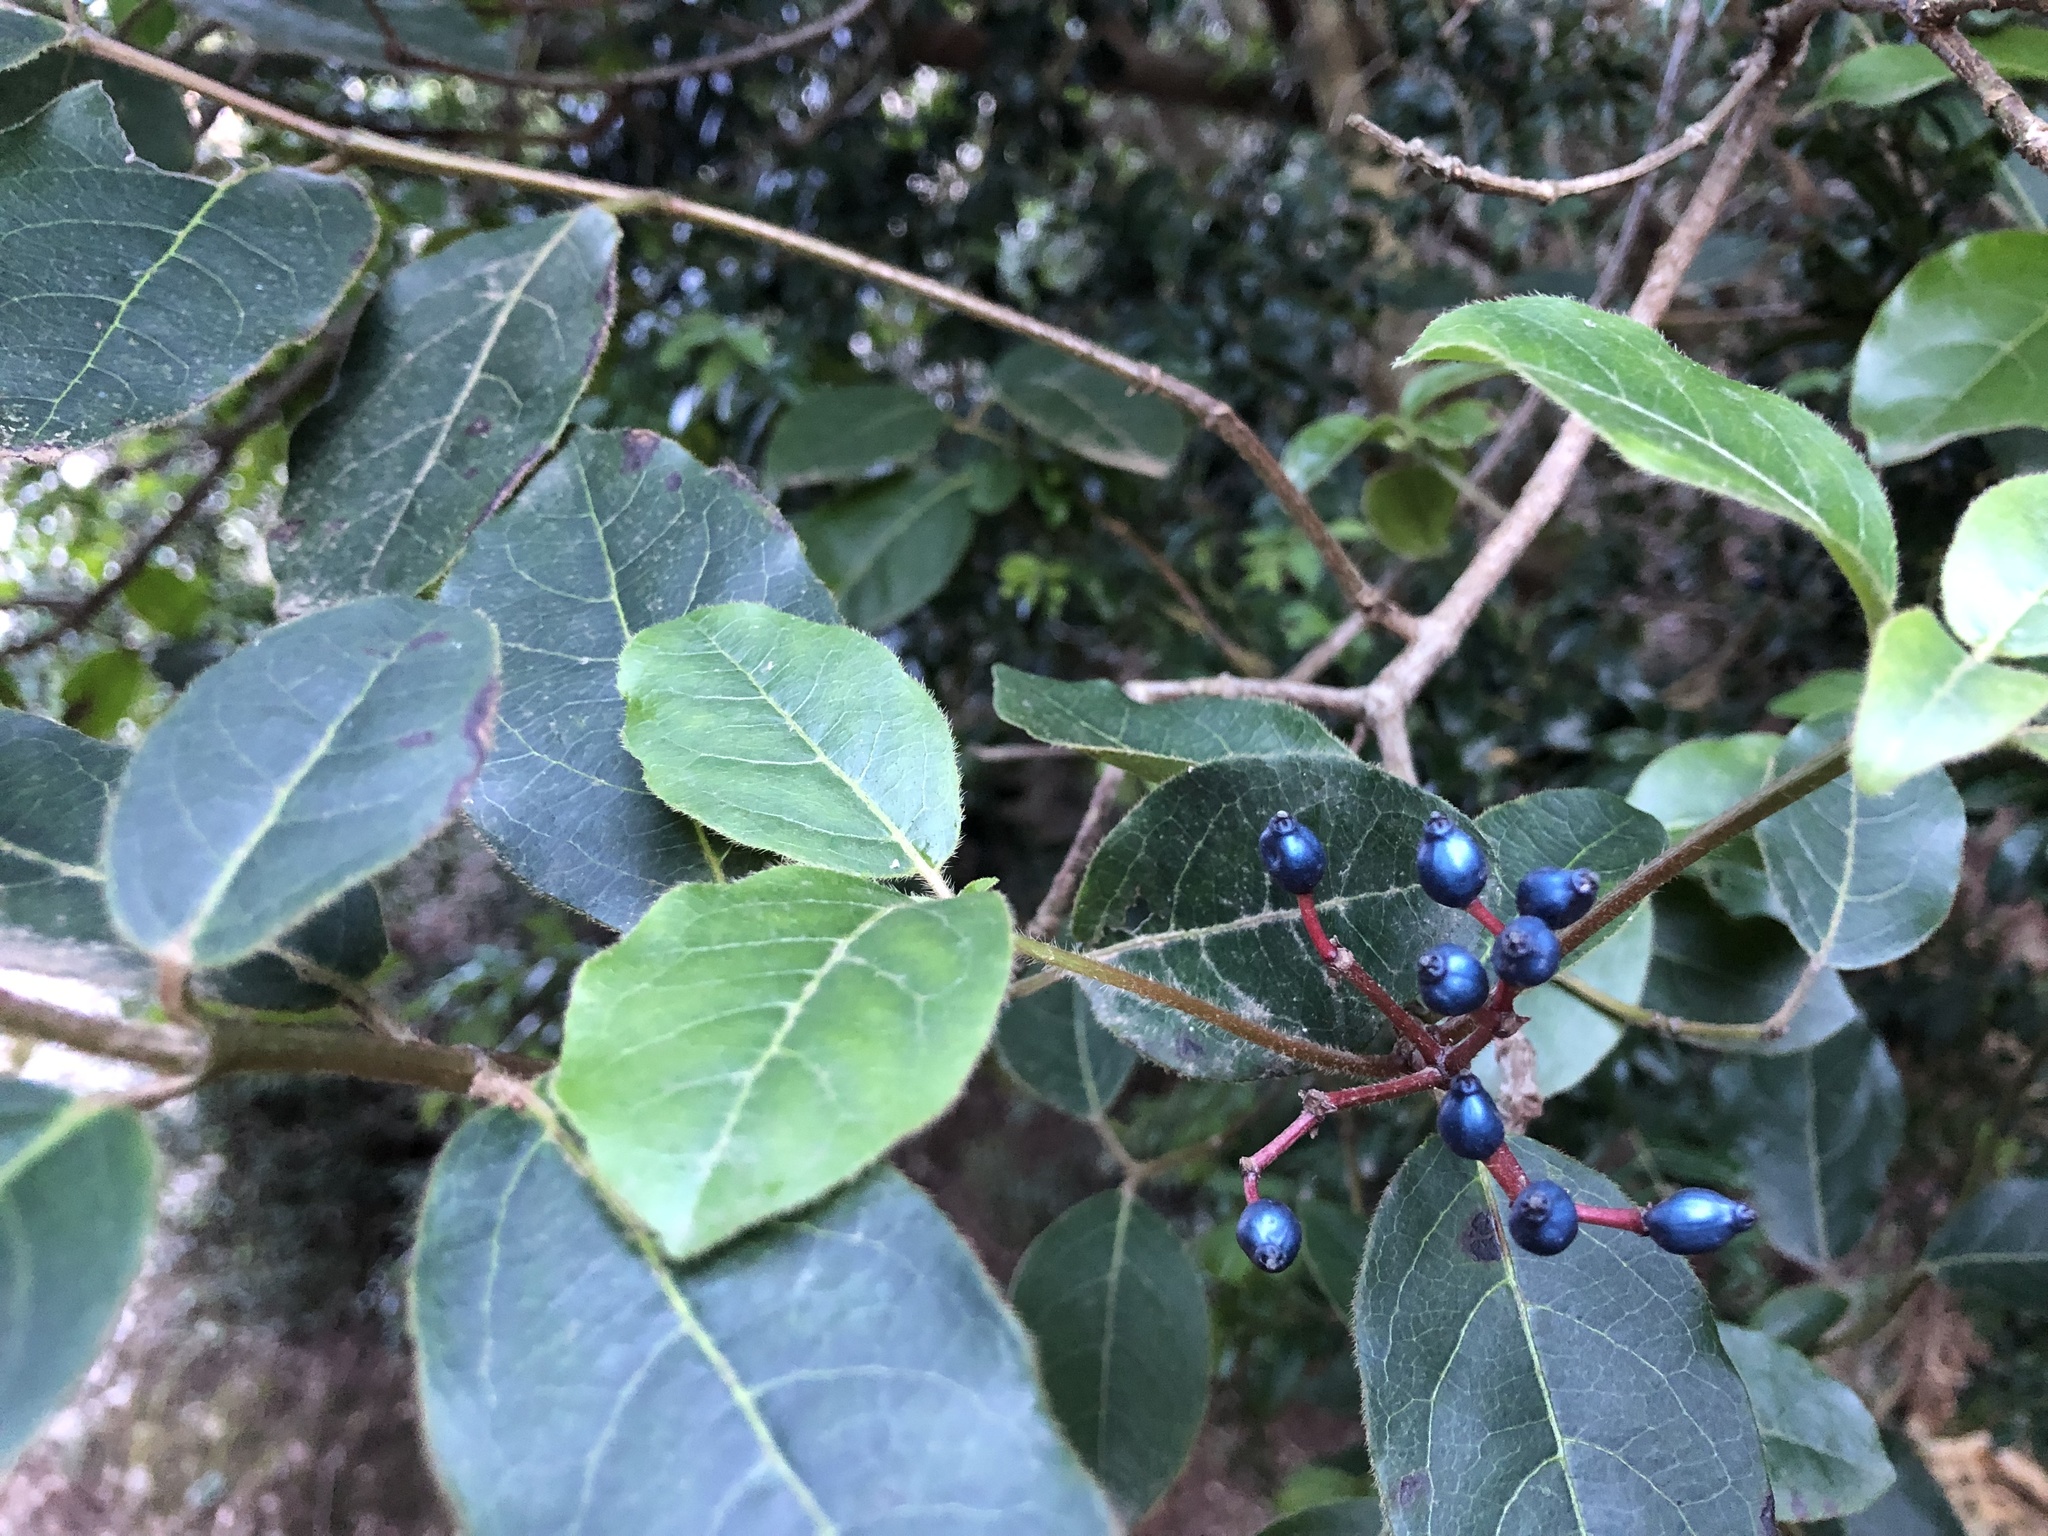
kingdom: Plantae
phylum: Tracheophyta
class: Magnoliopsida
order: Dipsacales
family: Viburnaceae
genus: Viburnum
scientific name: Viburnum tinus
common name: Laurustinus
